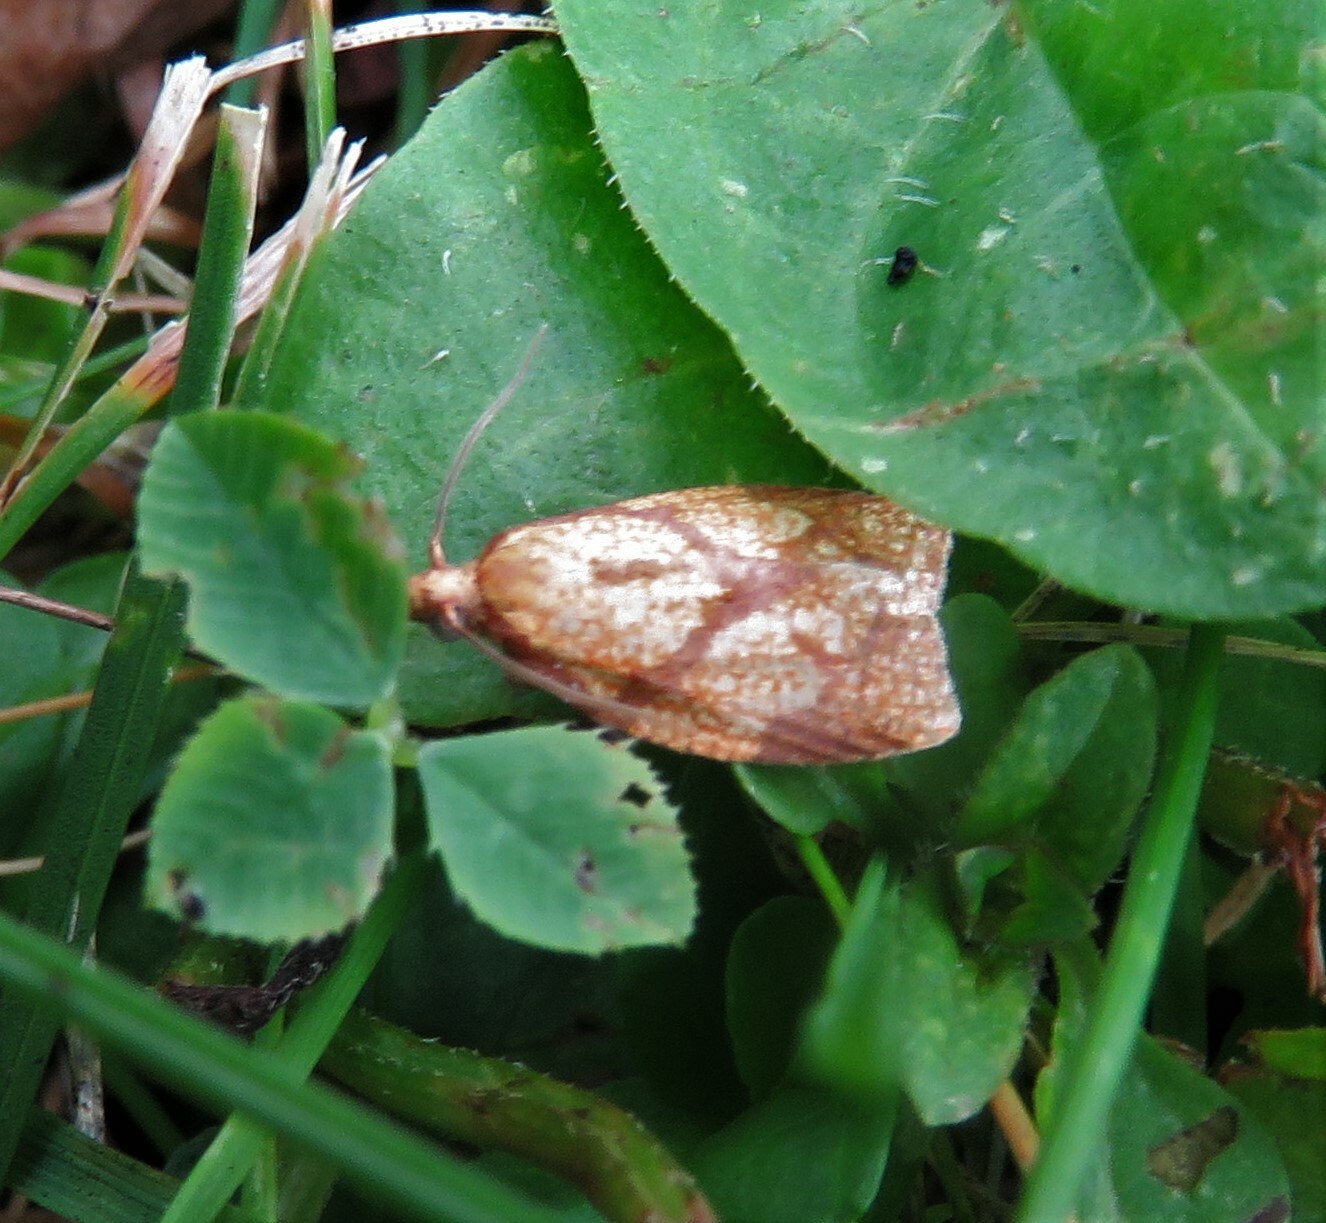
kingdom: Animalia
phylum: Arthropoda
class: Insecta
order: Lepidoptera
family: Tortricidae
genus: Cenopis
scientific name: Cenopis reticulatana
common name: Reticulated fruitworm moth
